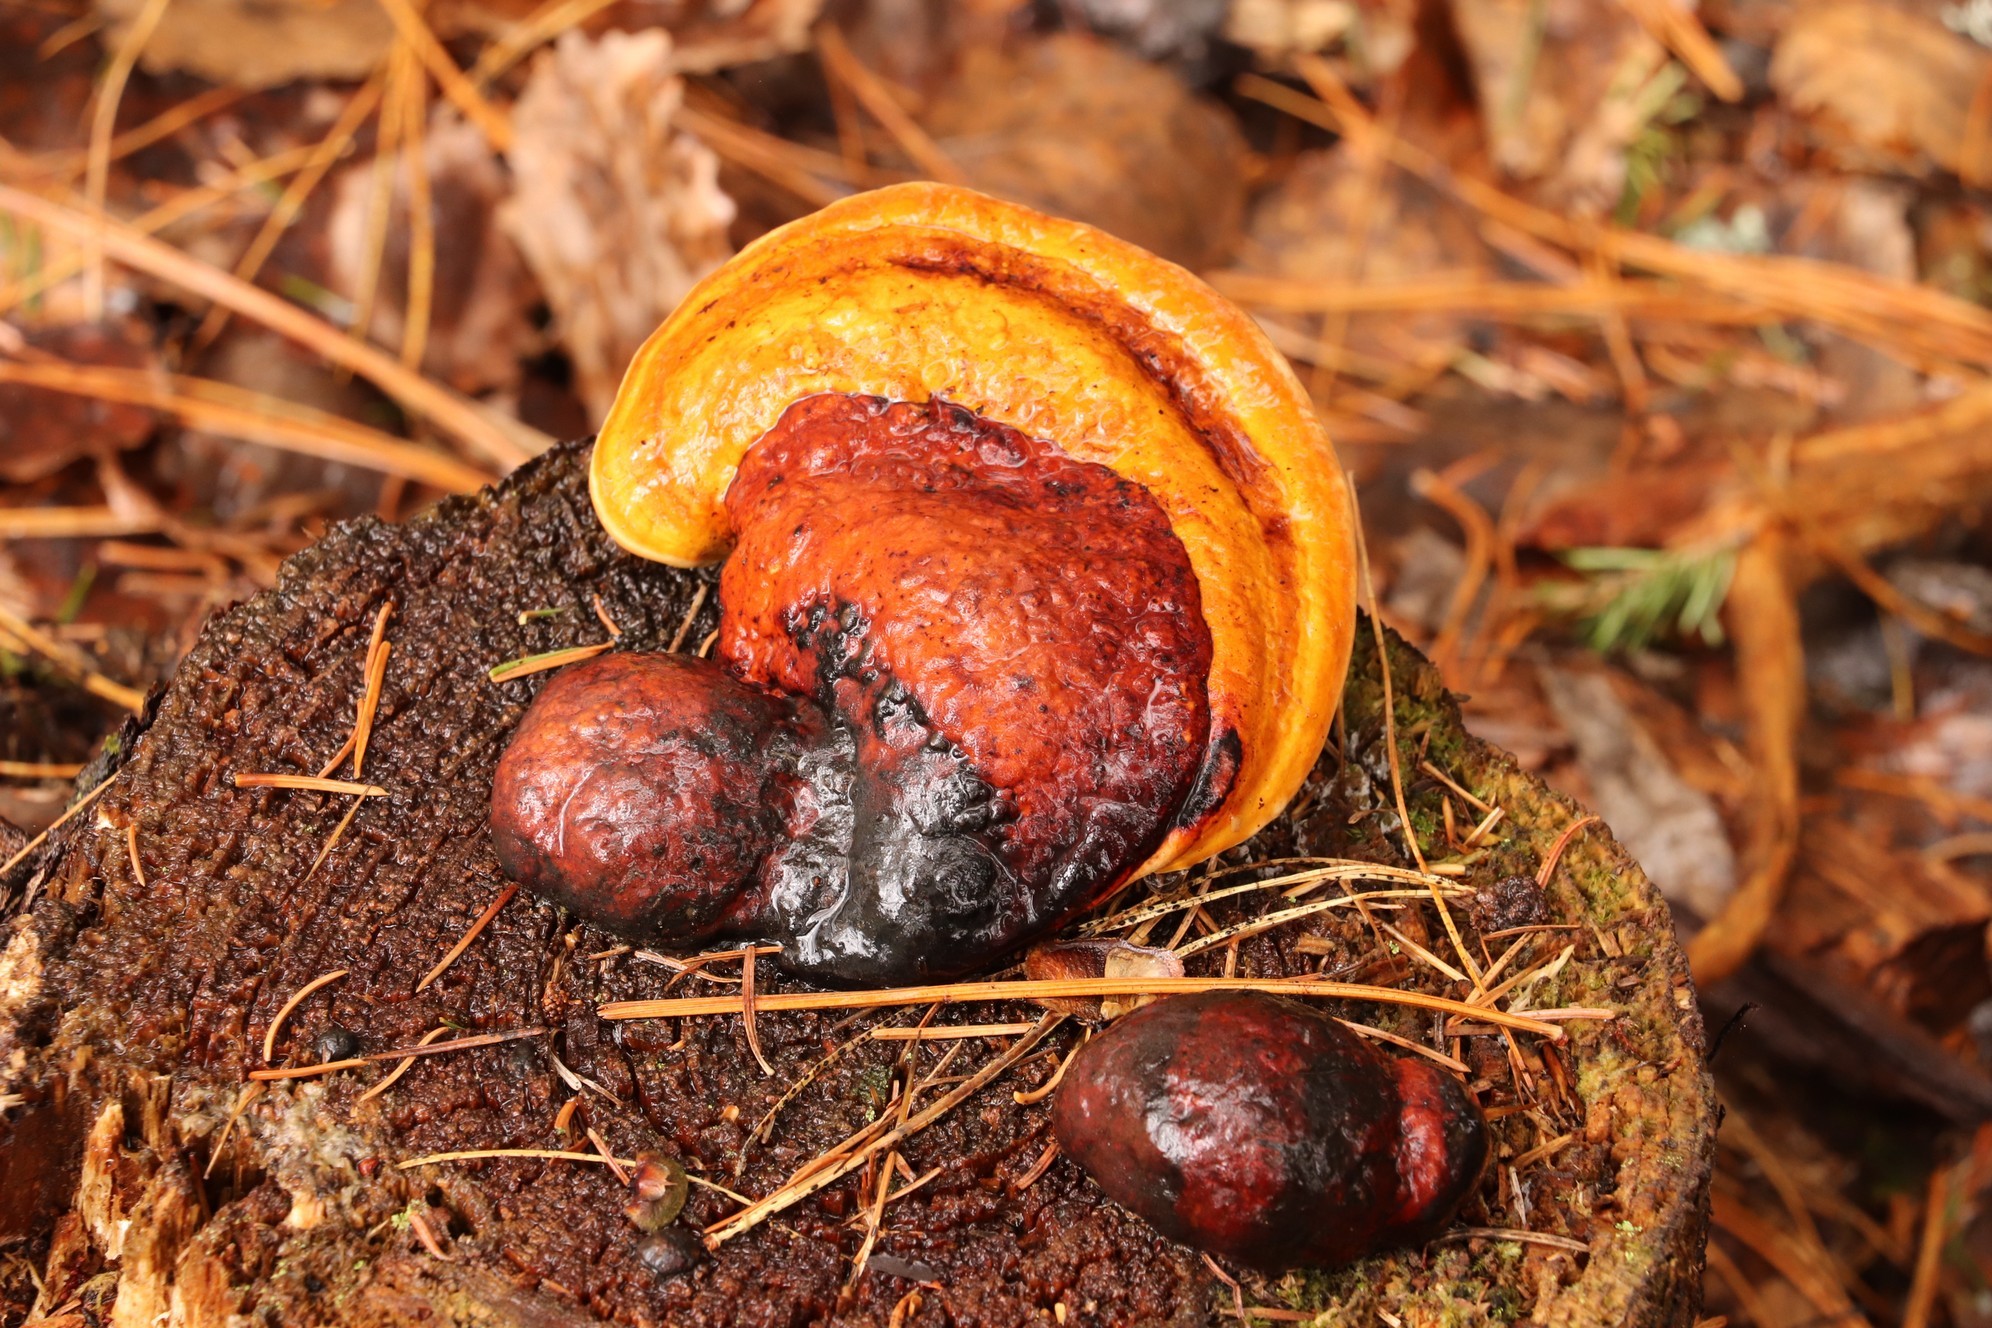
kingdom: Fungi
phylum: Basidiomycota
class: Agaricomycetes
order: Polyporales
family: Fomitopsidaceae
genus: Fomitopsis
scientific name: Fomitopsis pinicola
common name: Red-belted bracket
